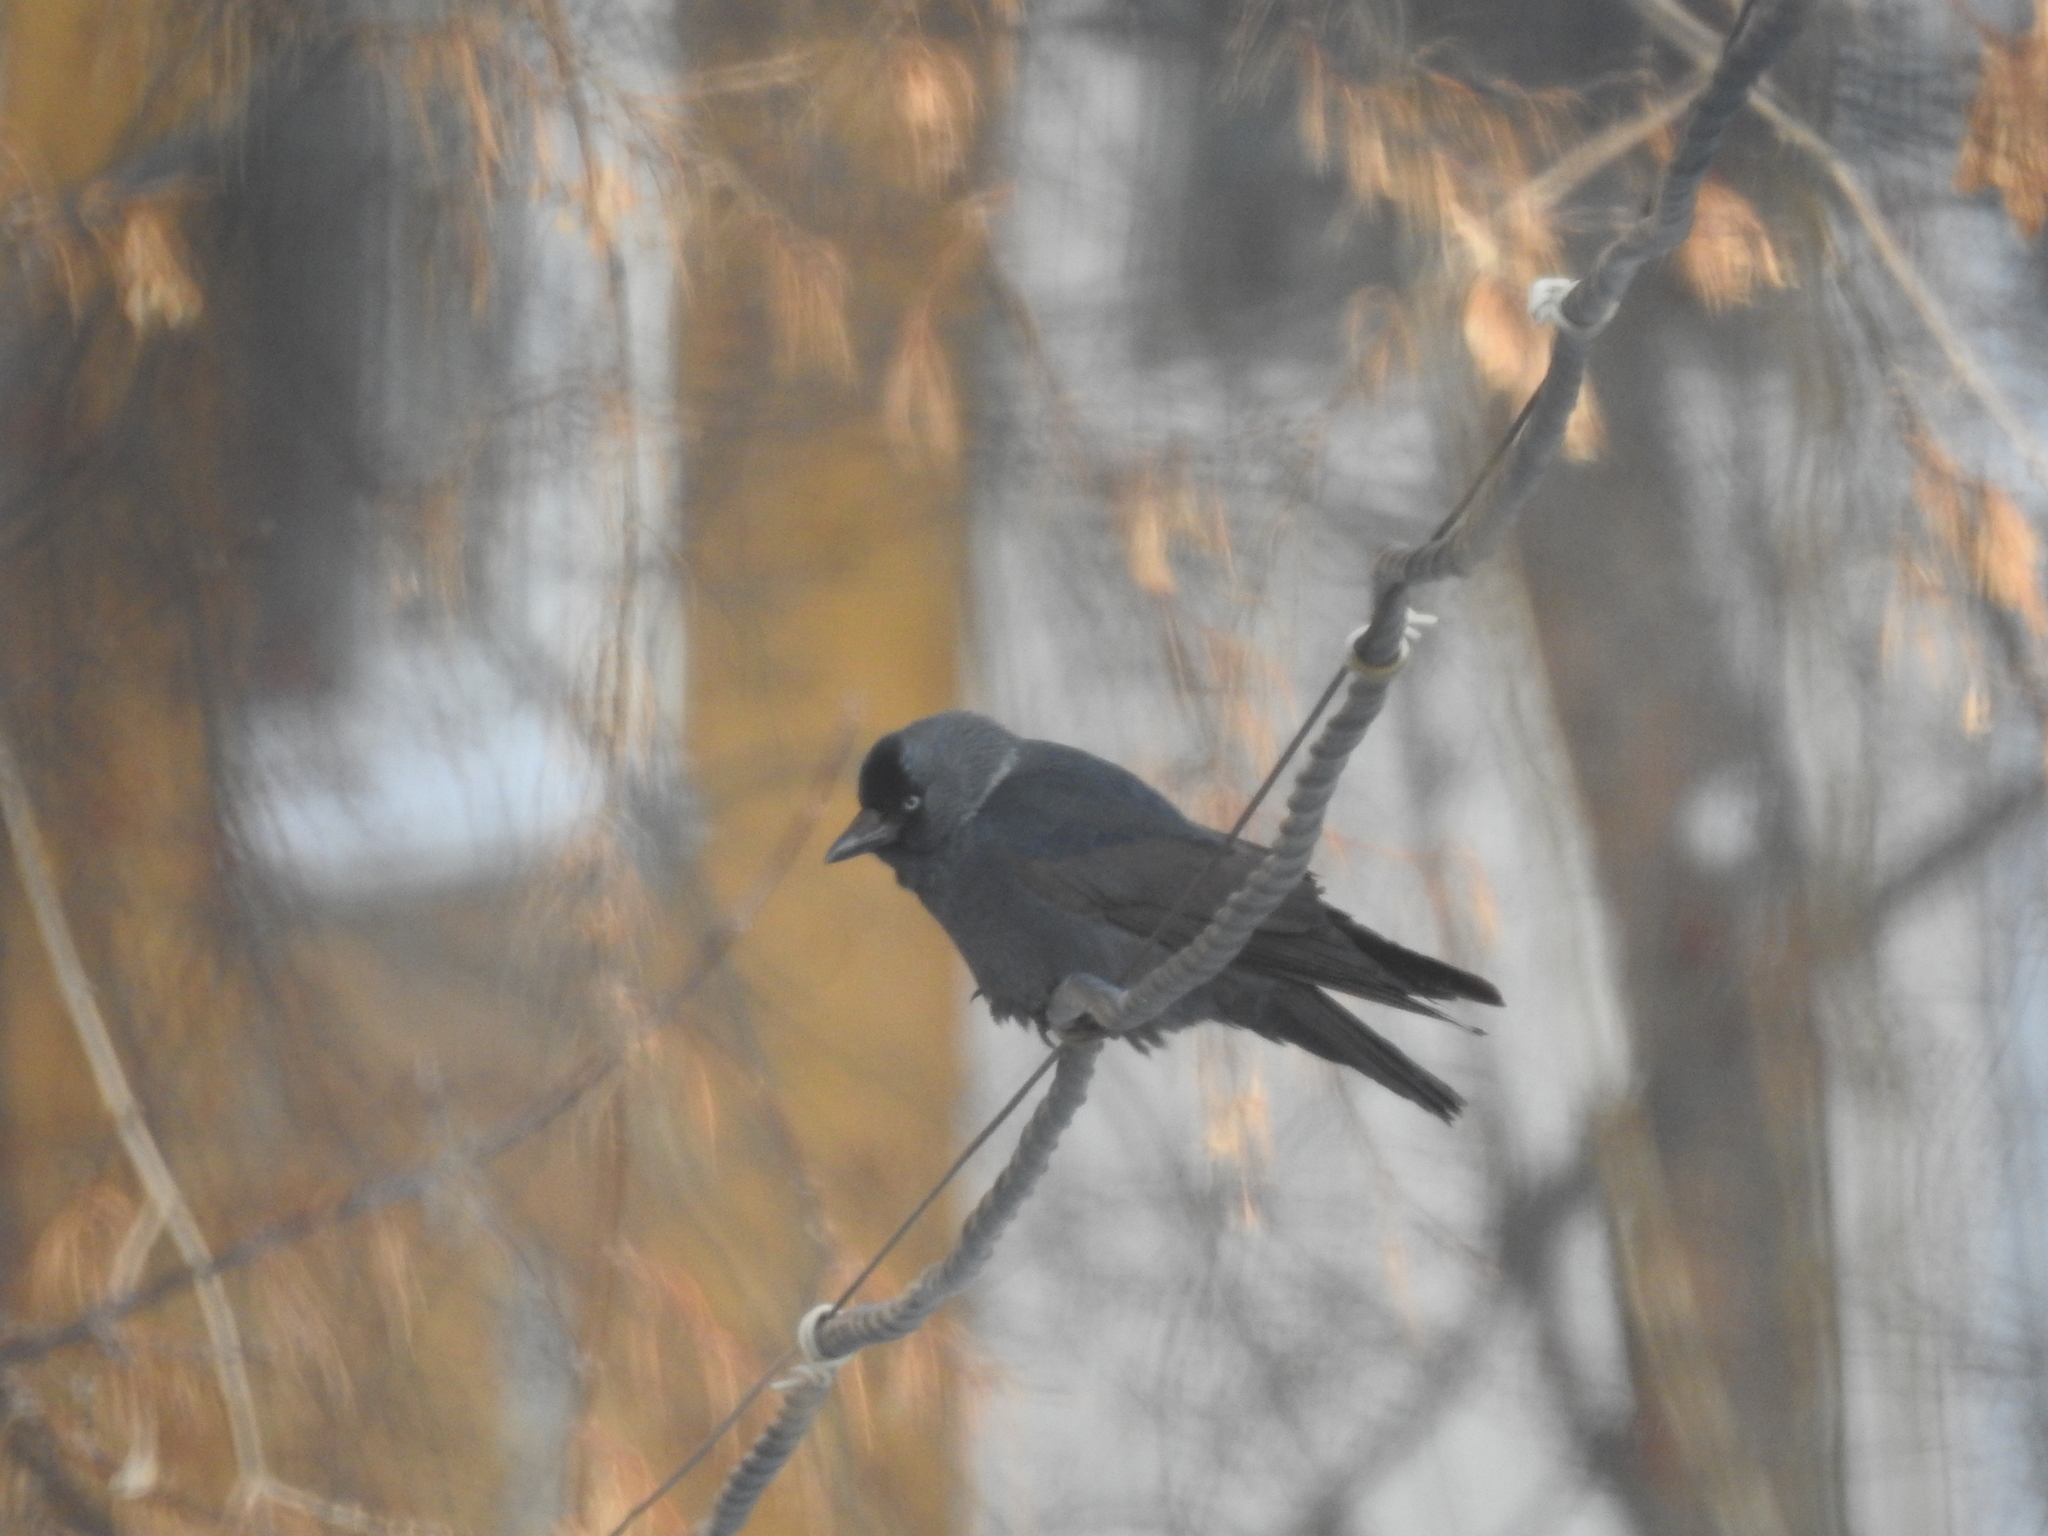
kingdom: Animalia
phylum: Chordata
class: Aves
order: Passeriformes
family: Corvidae
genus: Coloeus
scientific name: Coloeus monedula
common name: Western jackdaw
